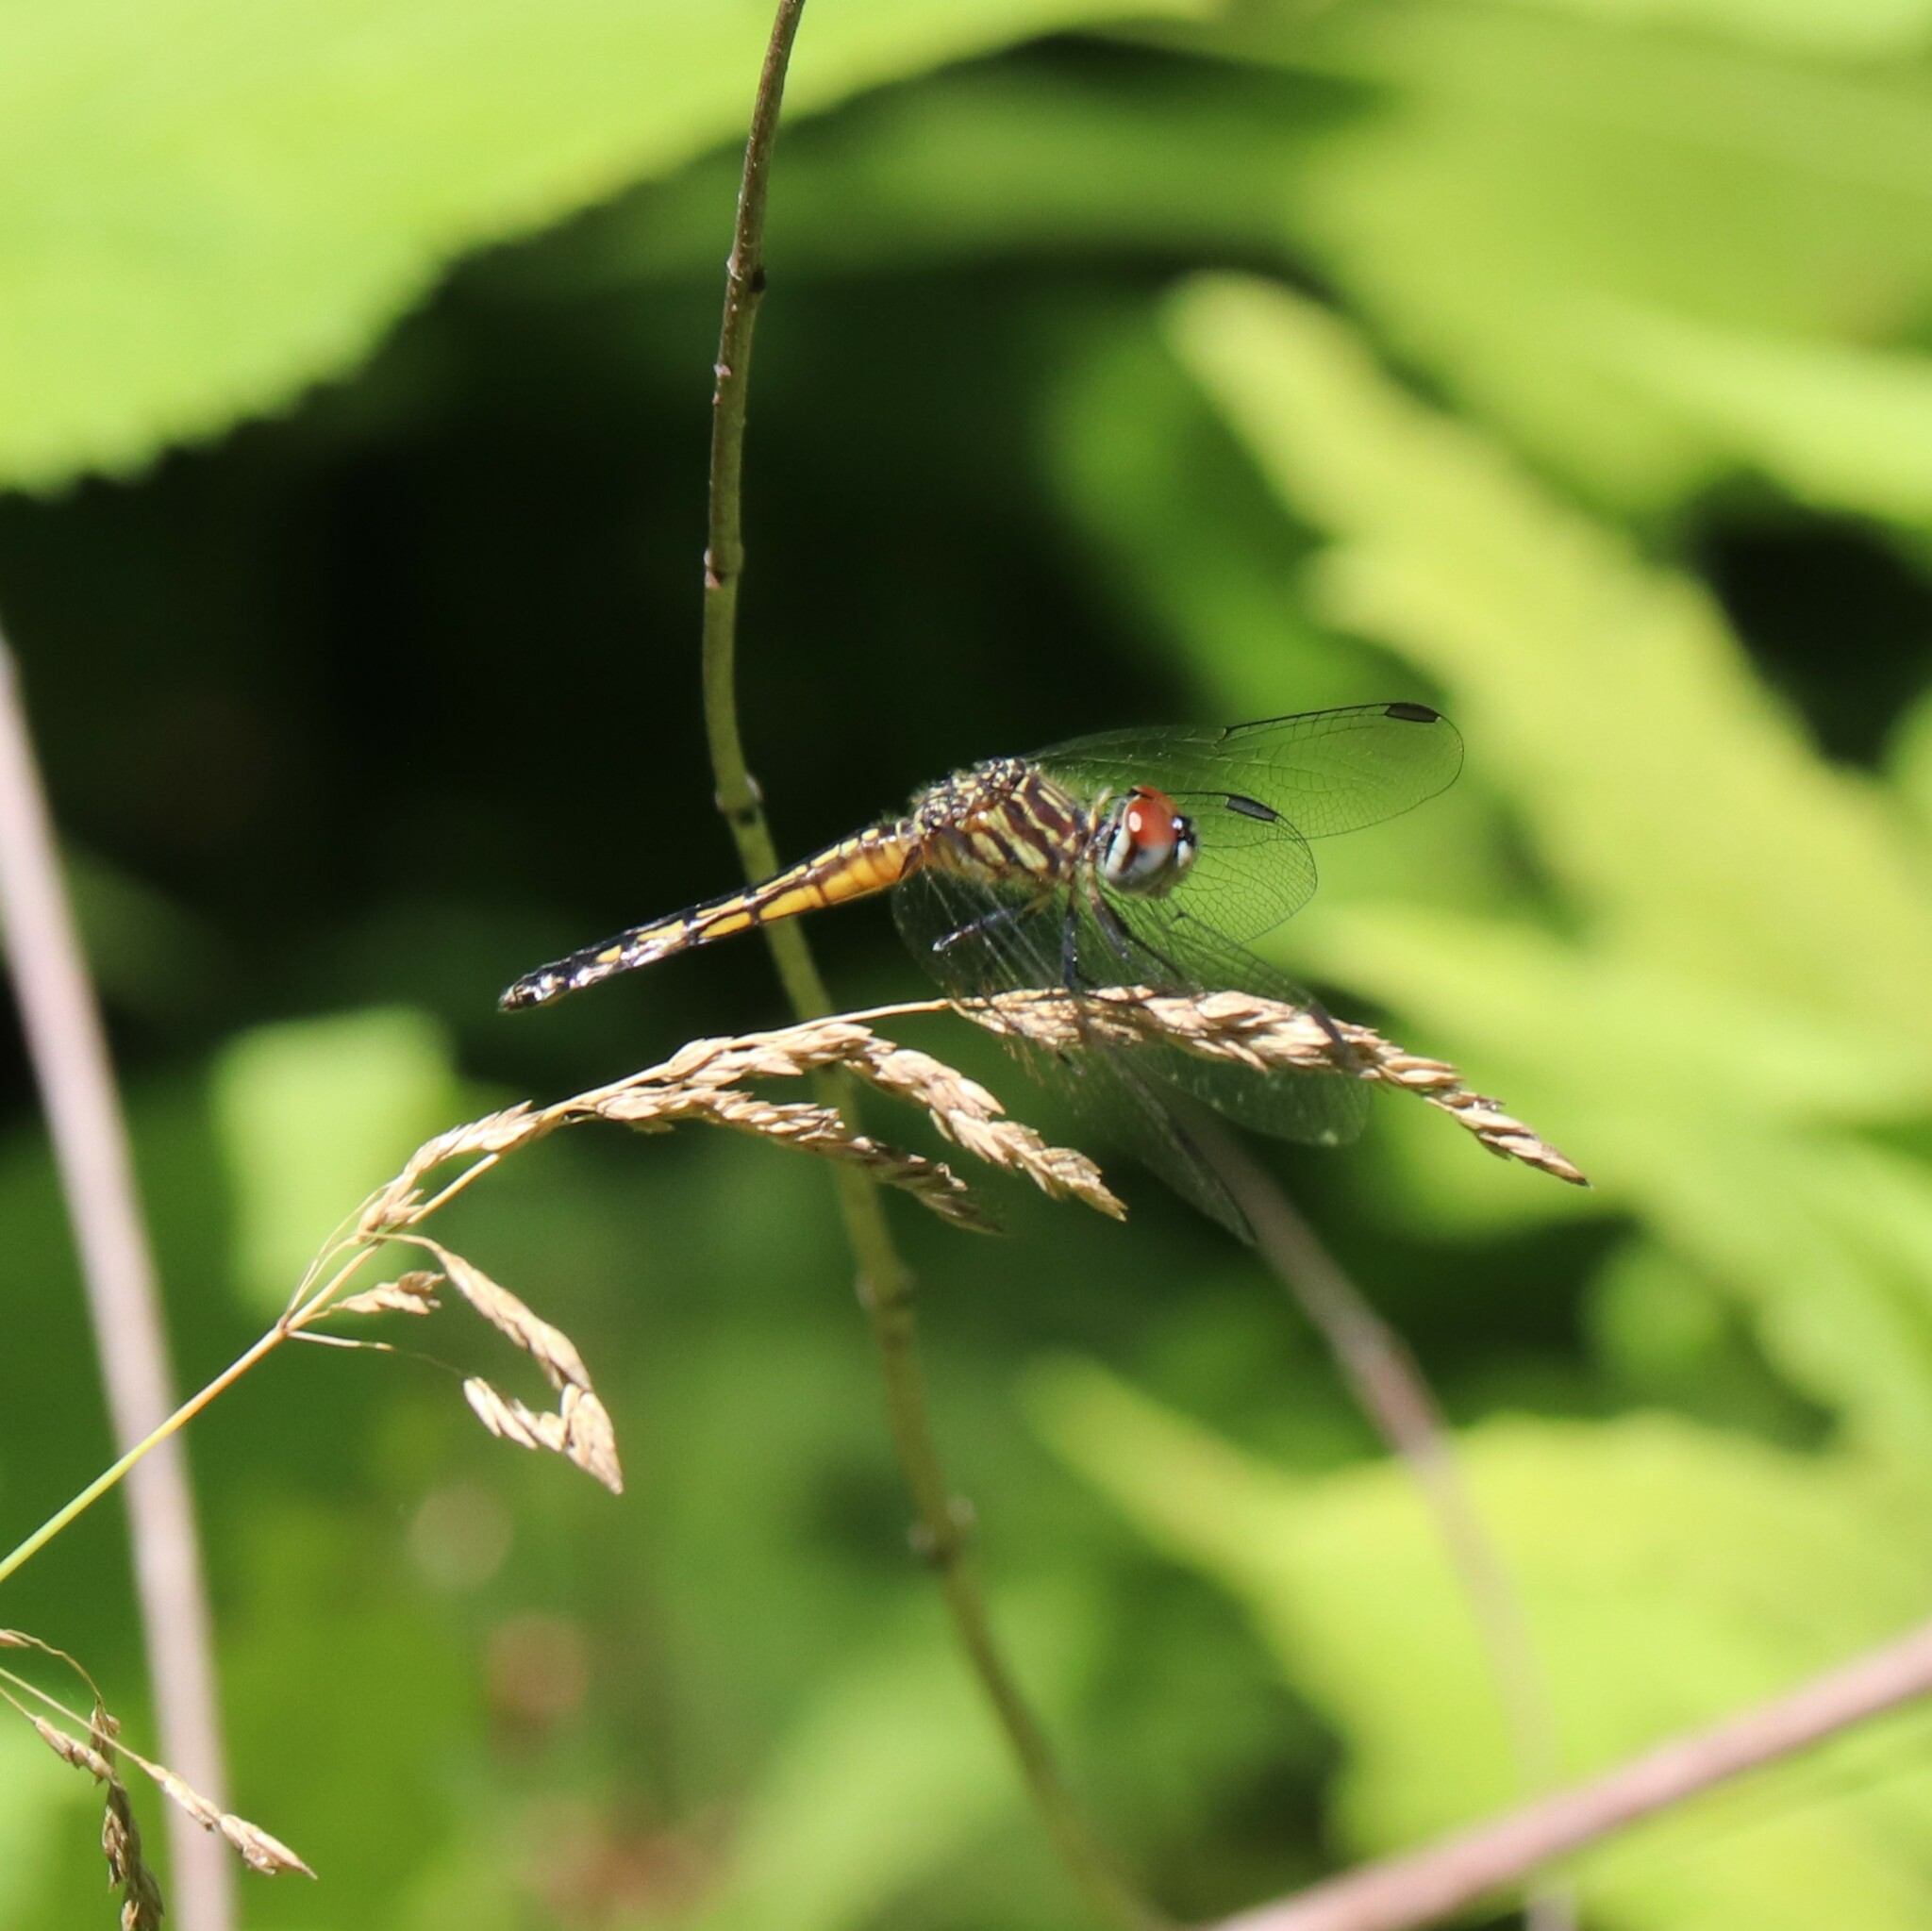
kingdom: Animalia
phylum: Arthropoda
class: Insecta
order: Odonata
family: Libellulidae
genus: Pachydiplax
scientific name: Pachydiplax longipennis
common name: Blue dasher
